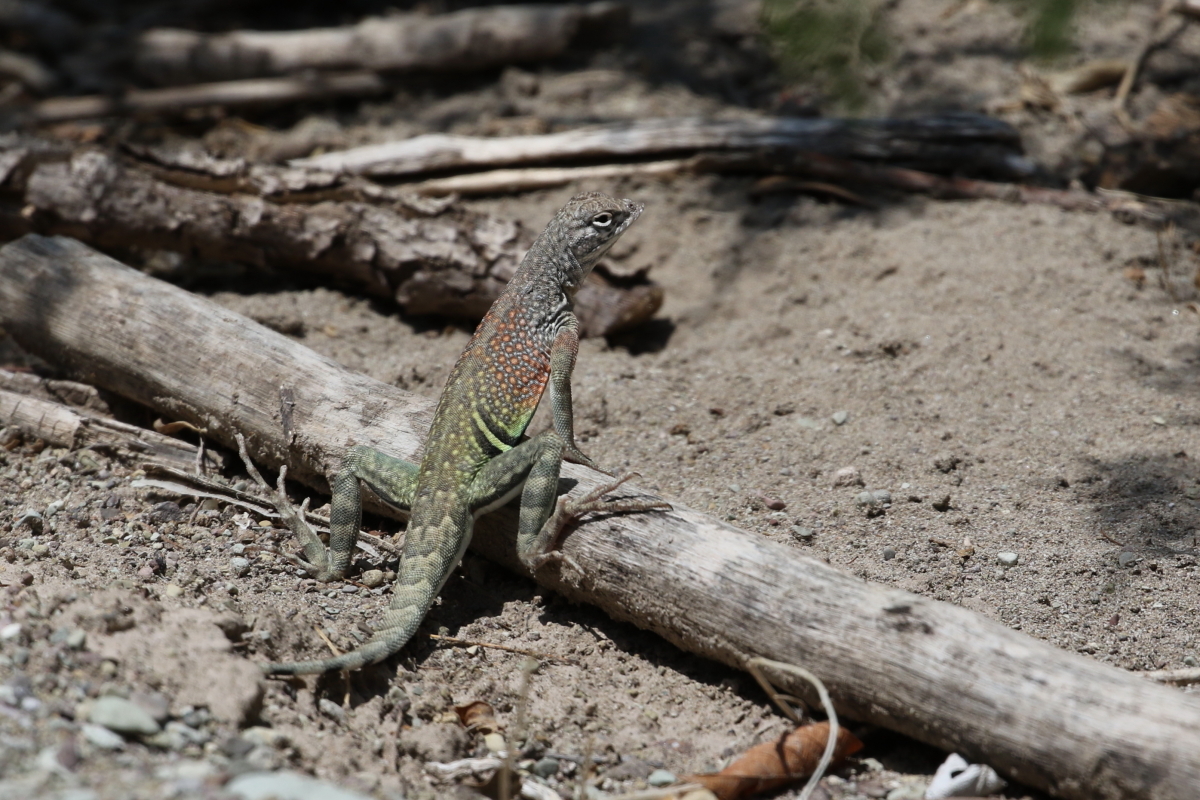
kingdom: Animalia
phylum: Chordata
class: Squamata
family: Phrynosomatidae
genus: Cophosaurus
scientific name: Cophosaurus texanus
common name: Greater earless lizard
